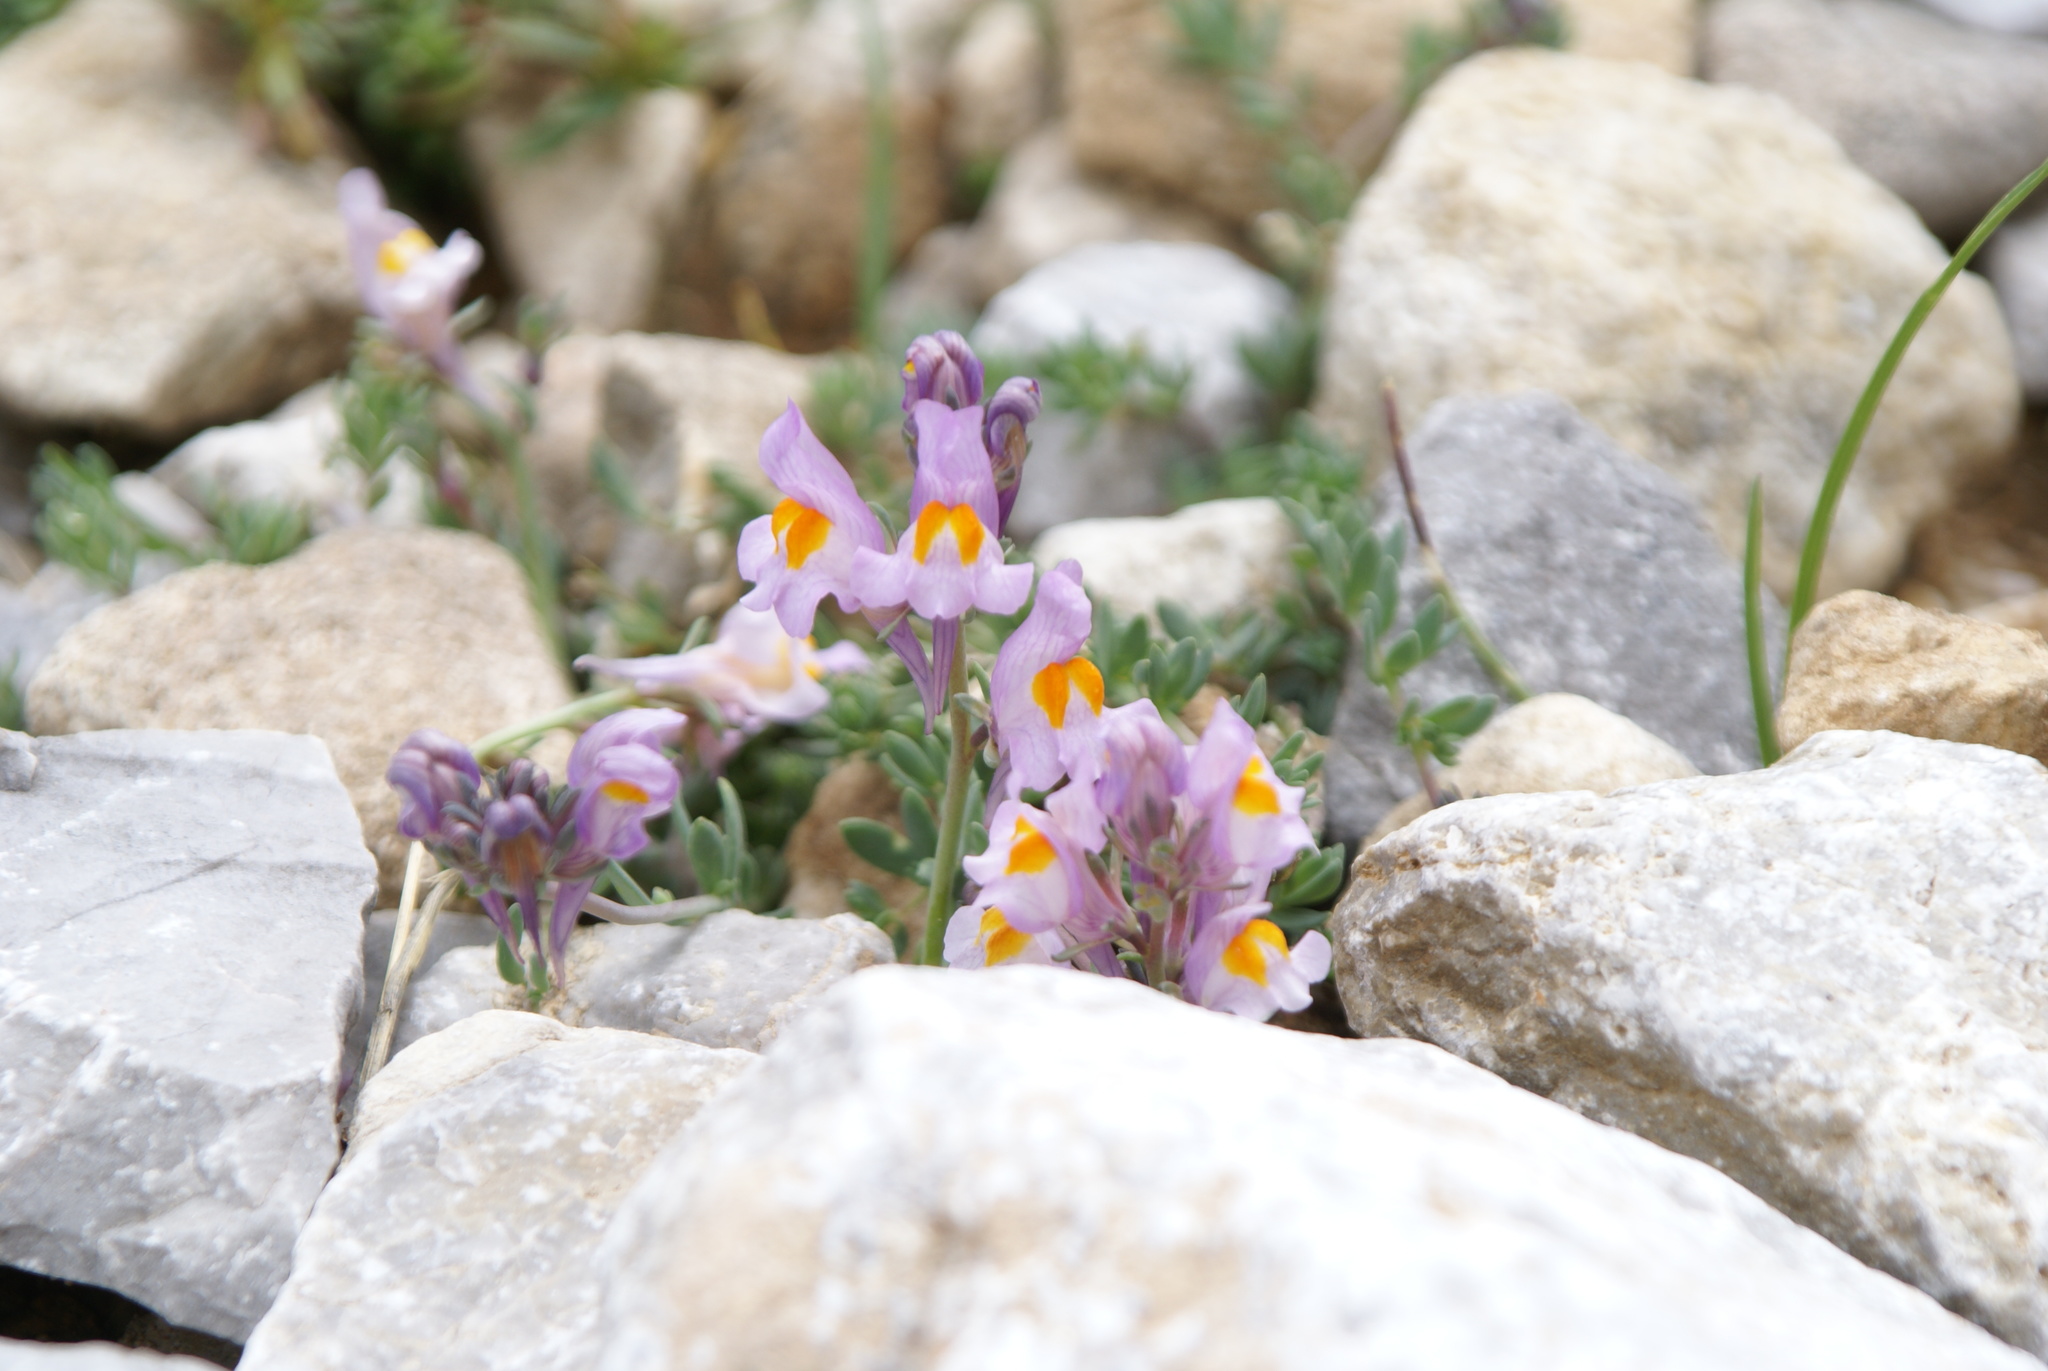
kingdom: Plantae
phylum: Tracheophyta
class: Magnoliopsida
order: Lamiales
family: Plantaginaceae
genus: Linaria
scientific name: Linaria alpina
